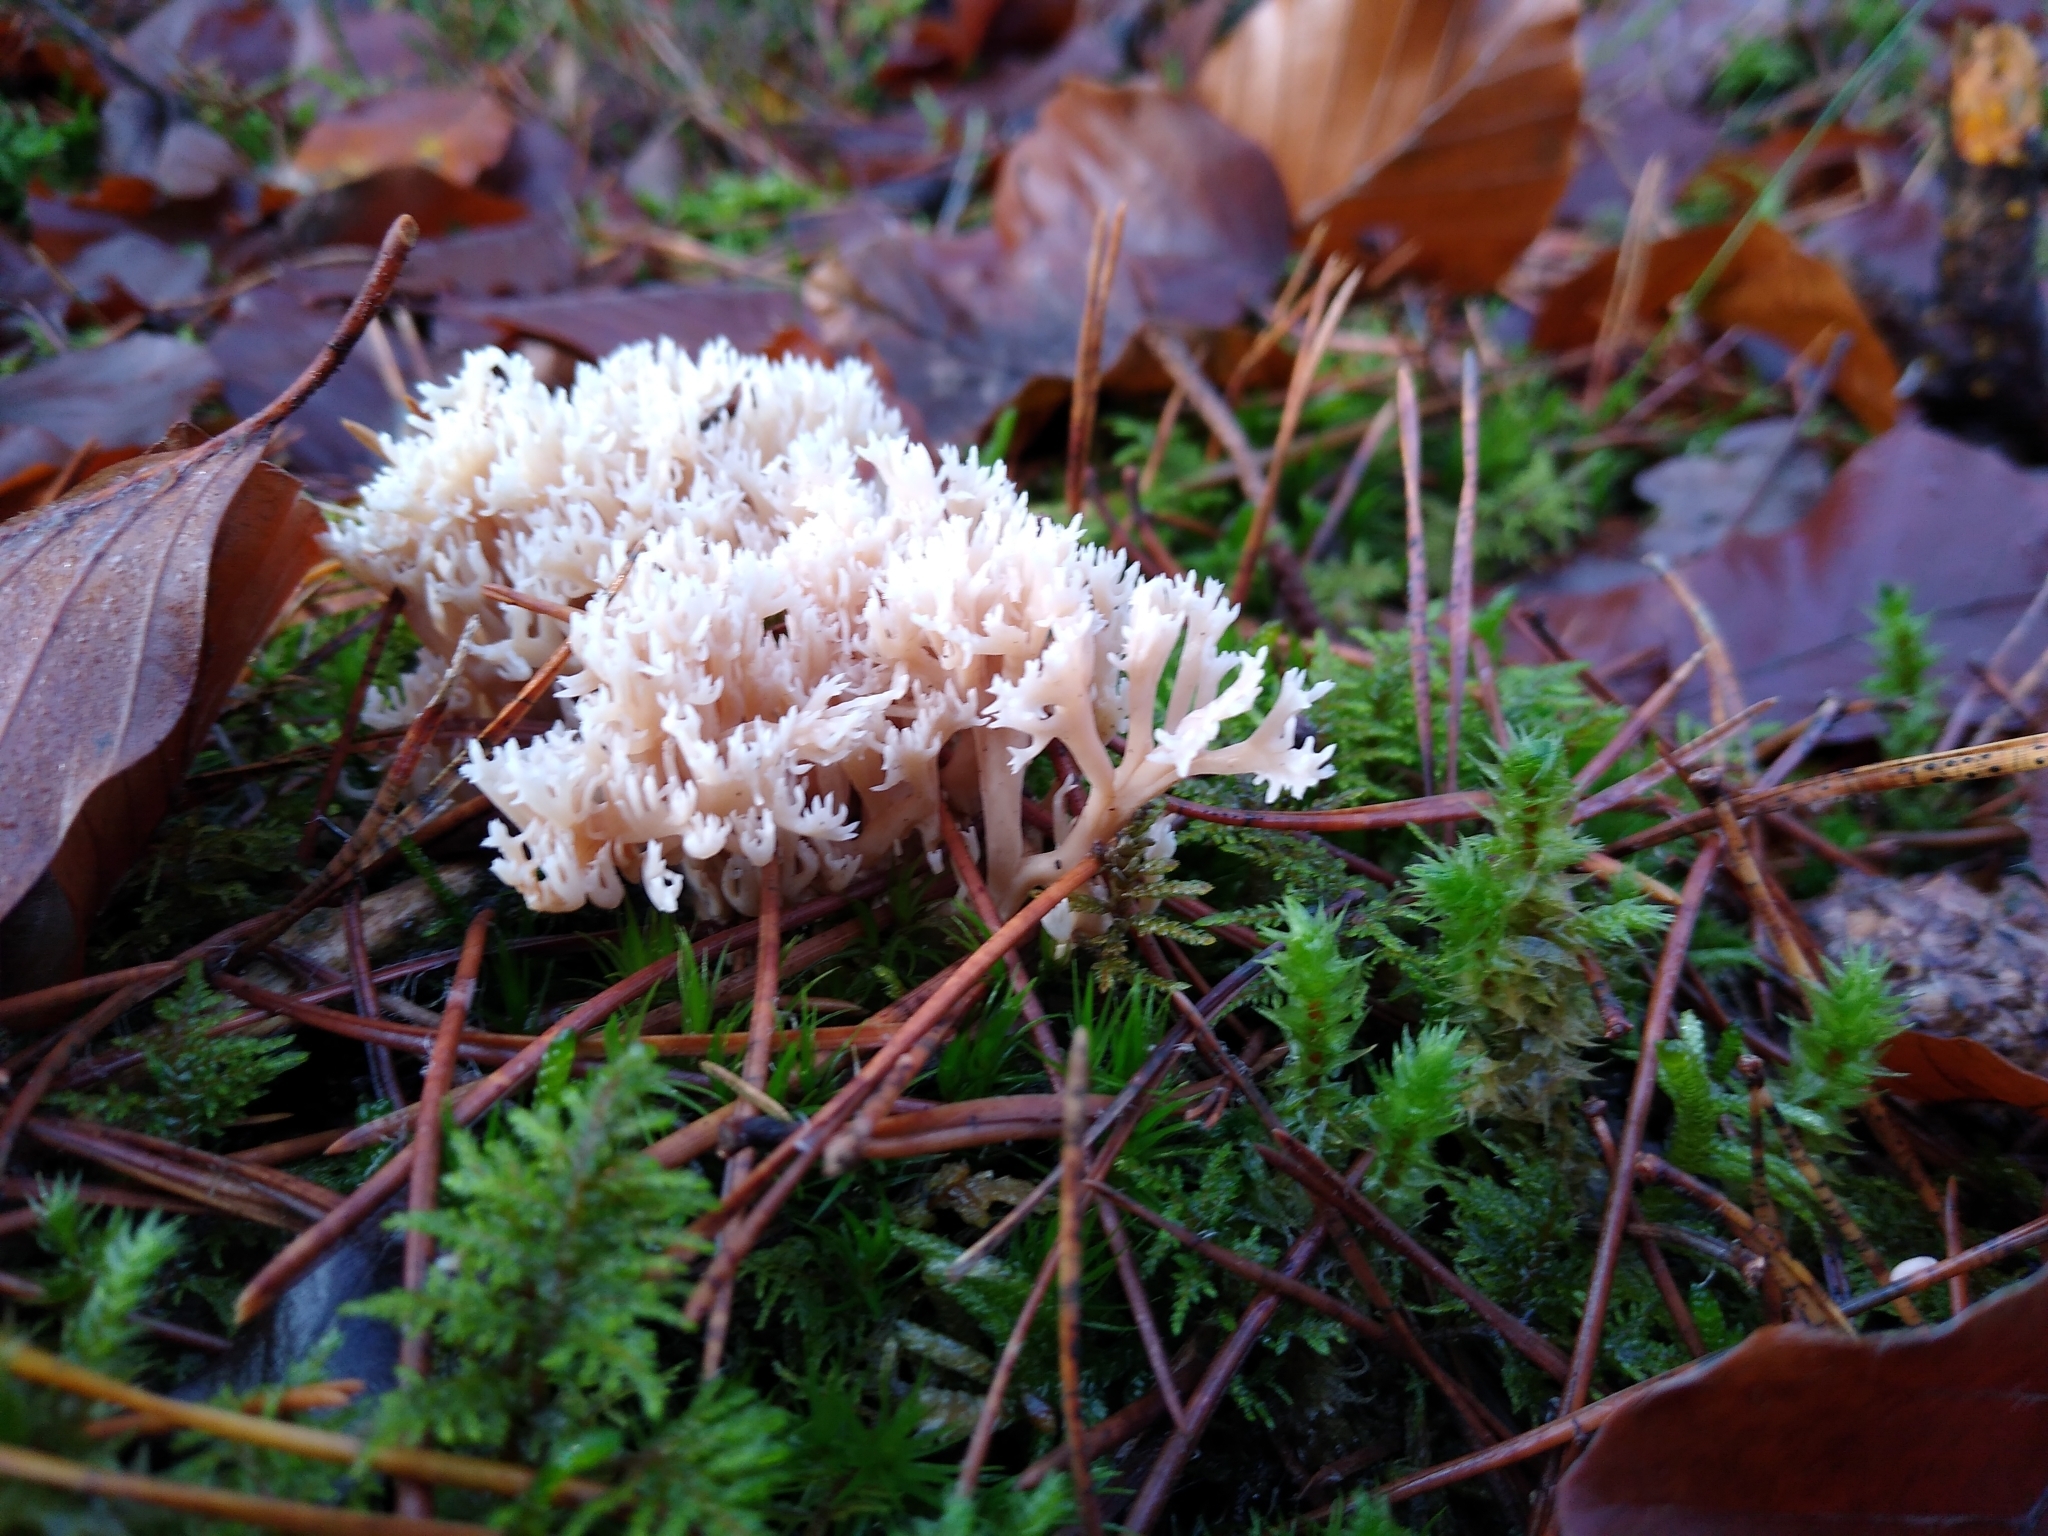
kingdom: Fungi
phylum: Basidiomycota
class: Agaricomycetes
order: Cantharellales
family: Hydnaceae
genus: Clavulina
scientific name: Clavulina coralloides
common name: Crested coral
